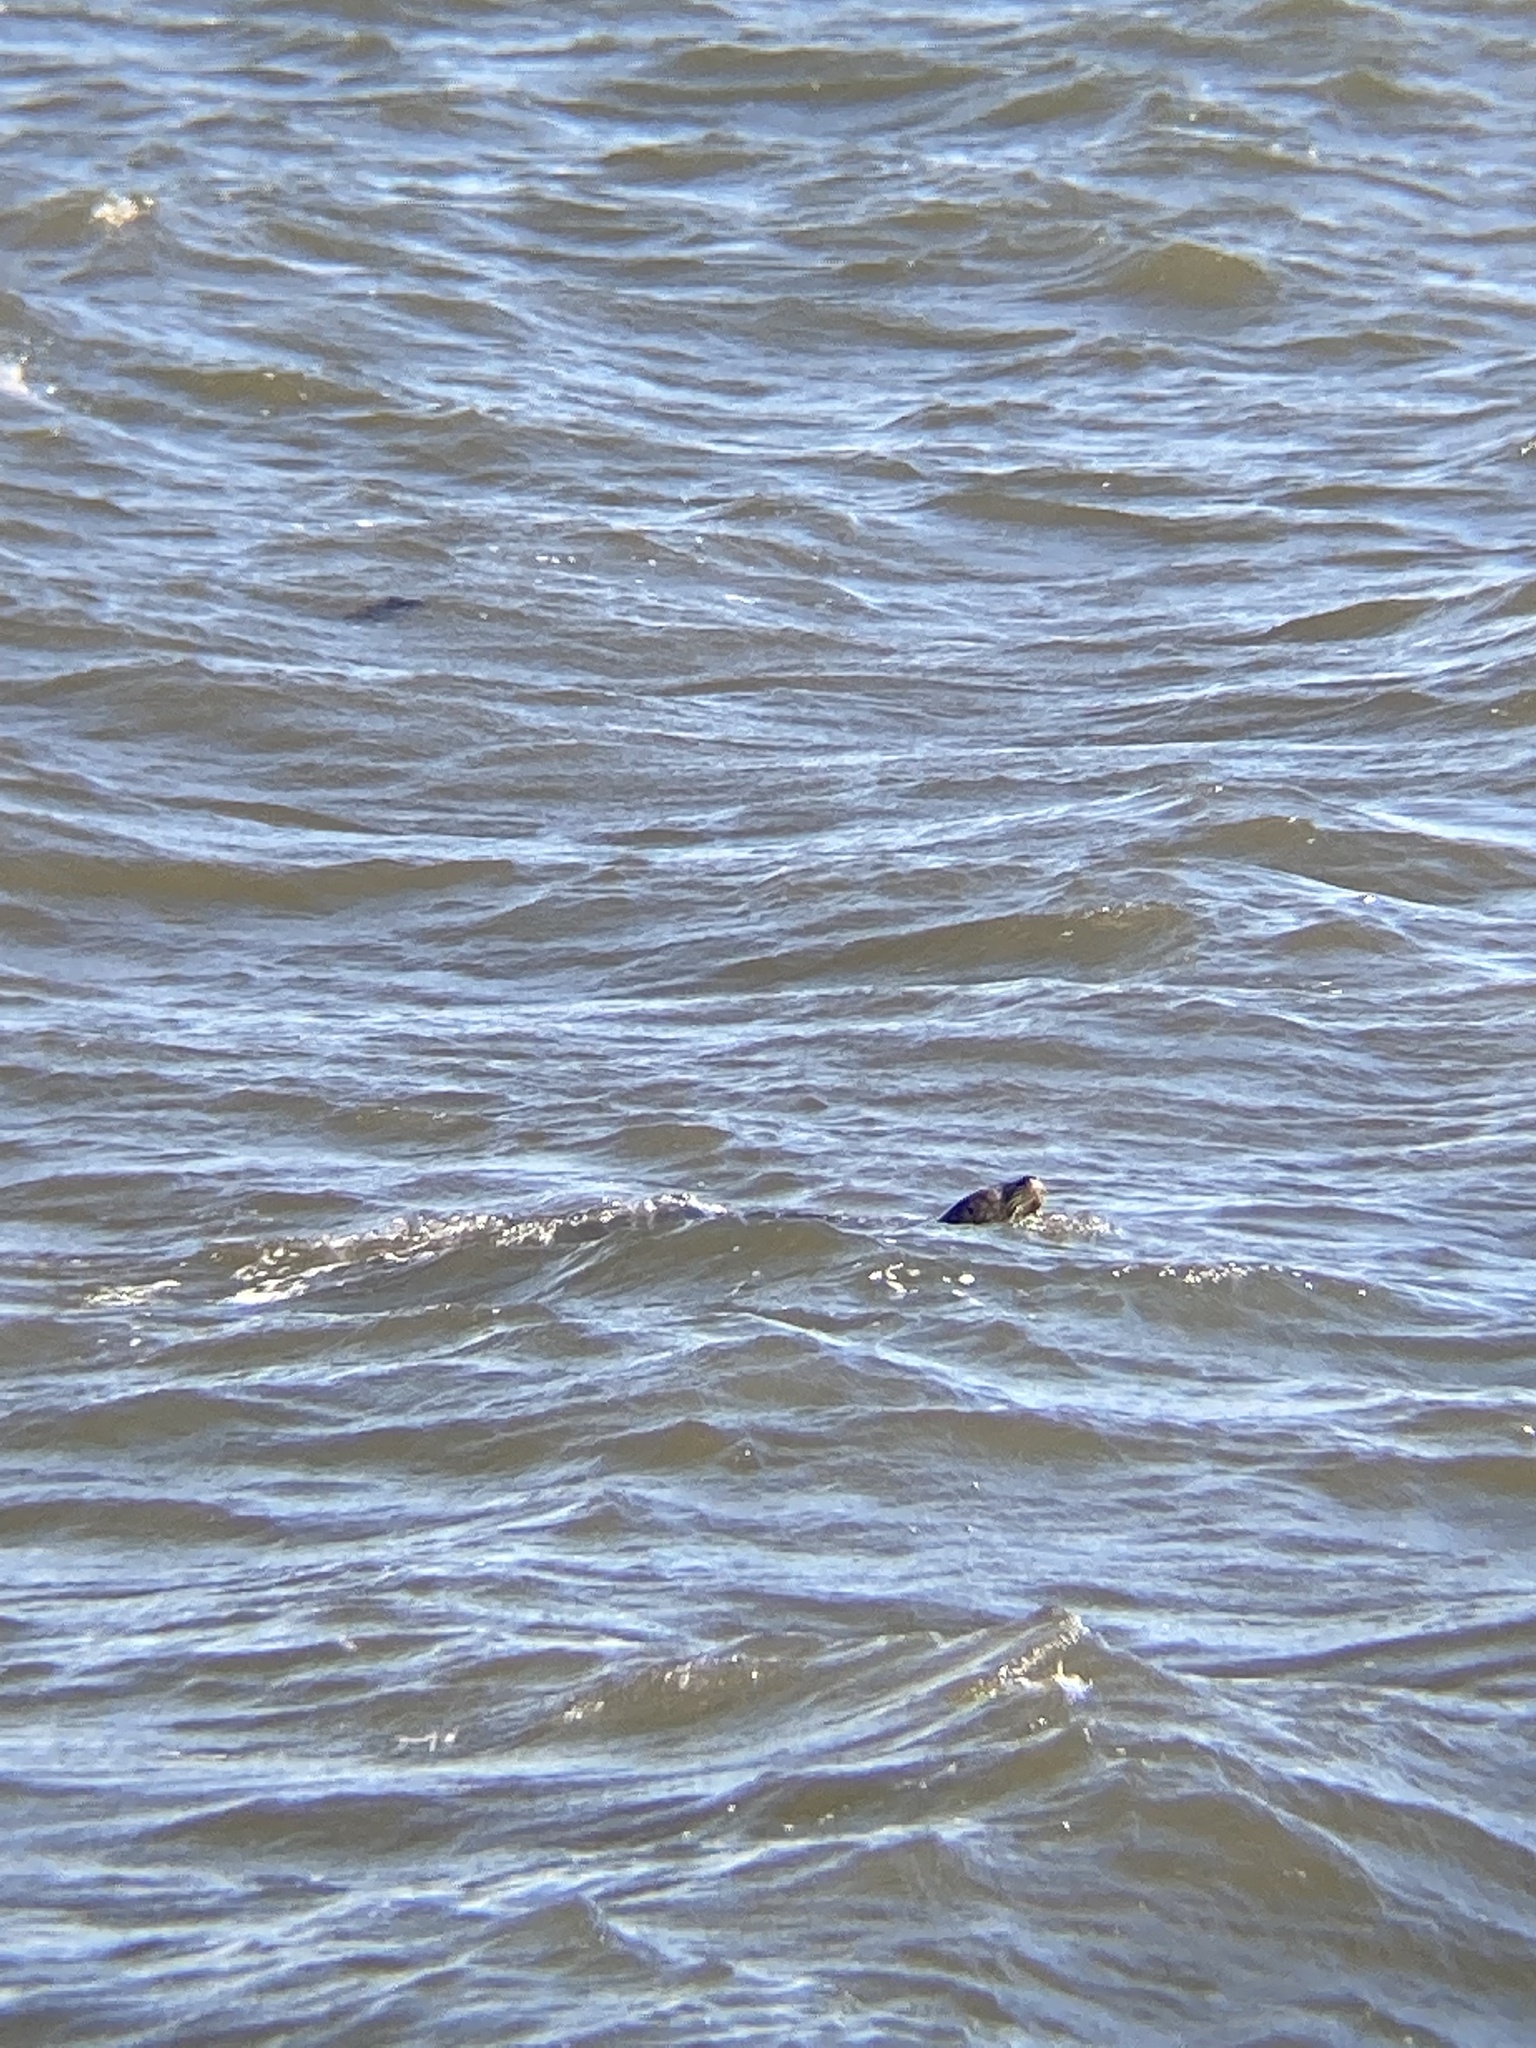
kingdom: Animalia
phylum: Chordata
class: Mammalia
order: Carnivora
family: Phocidae
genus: Phoca
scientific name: Phoca vitulina
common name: Harbor seal
